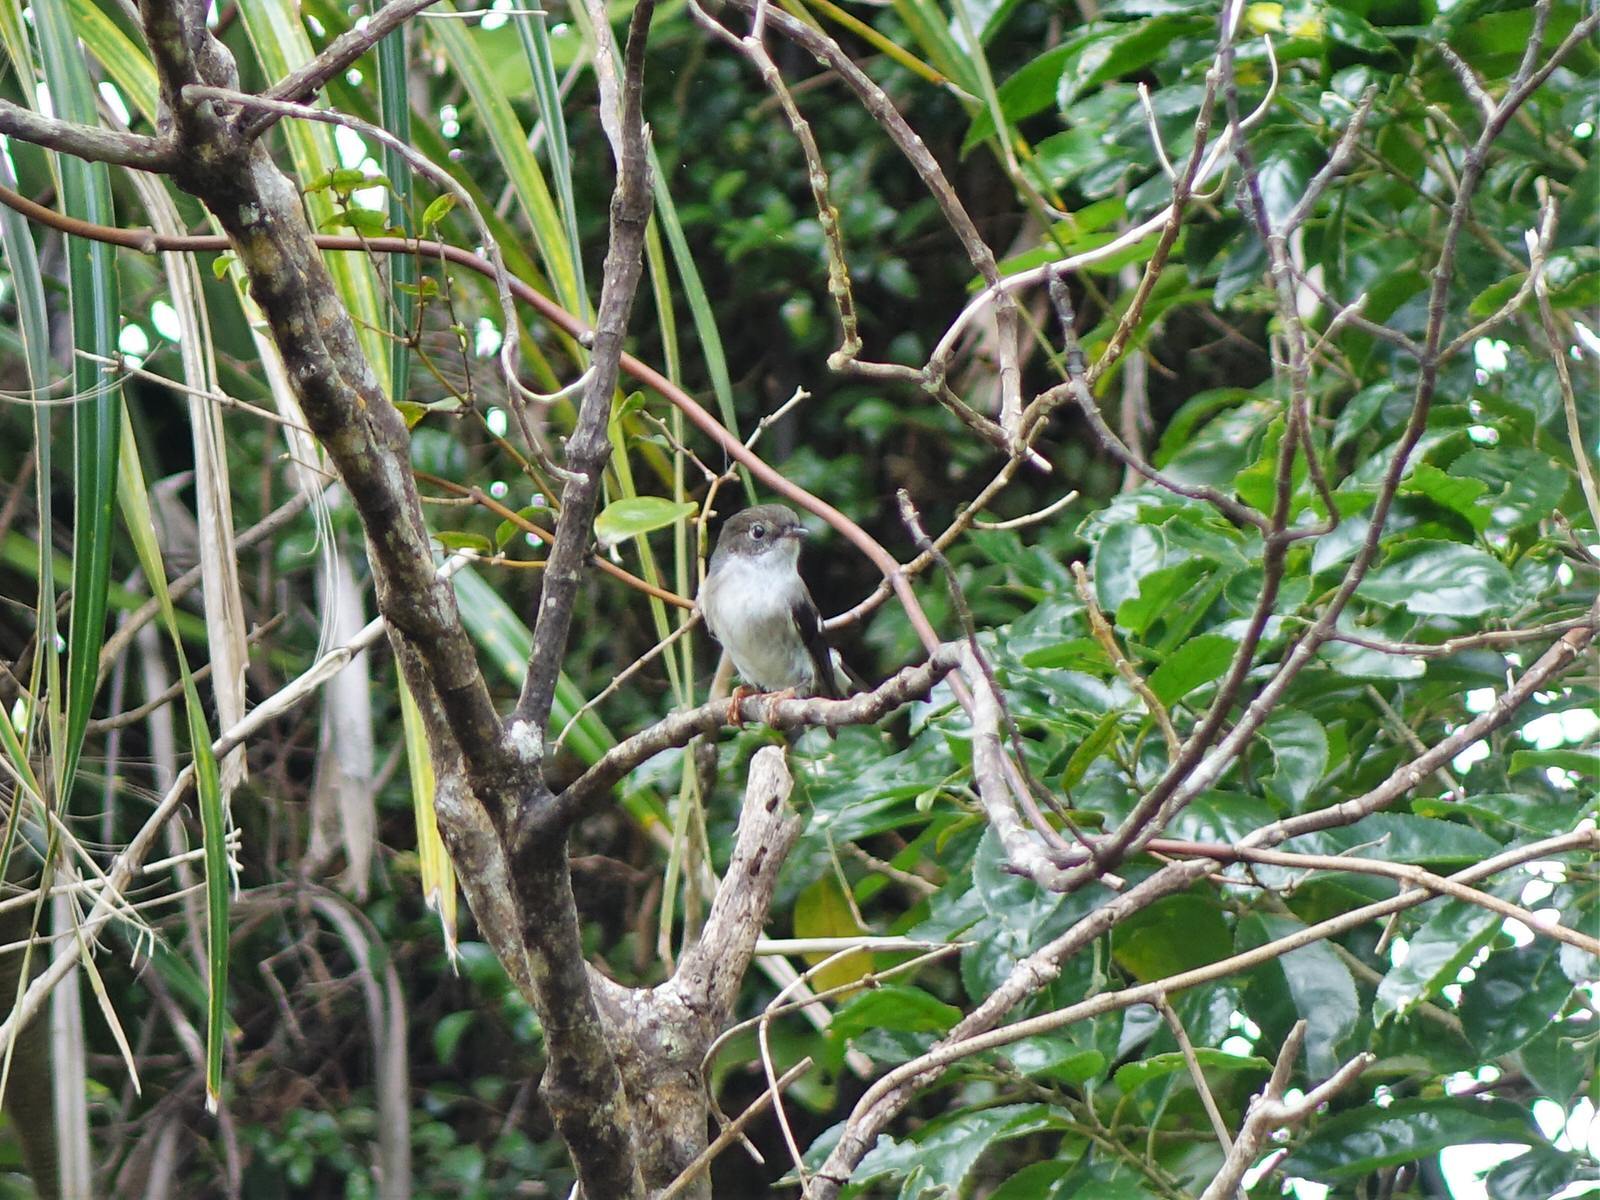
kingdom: Animalia
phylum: Chordata
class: Aves
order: Passeriformes
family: Petroicidae
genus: Petroica
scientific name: Petroica macrocephala
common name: Tomtit
